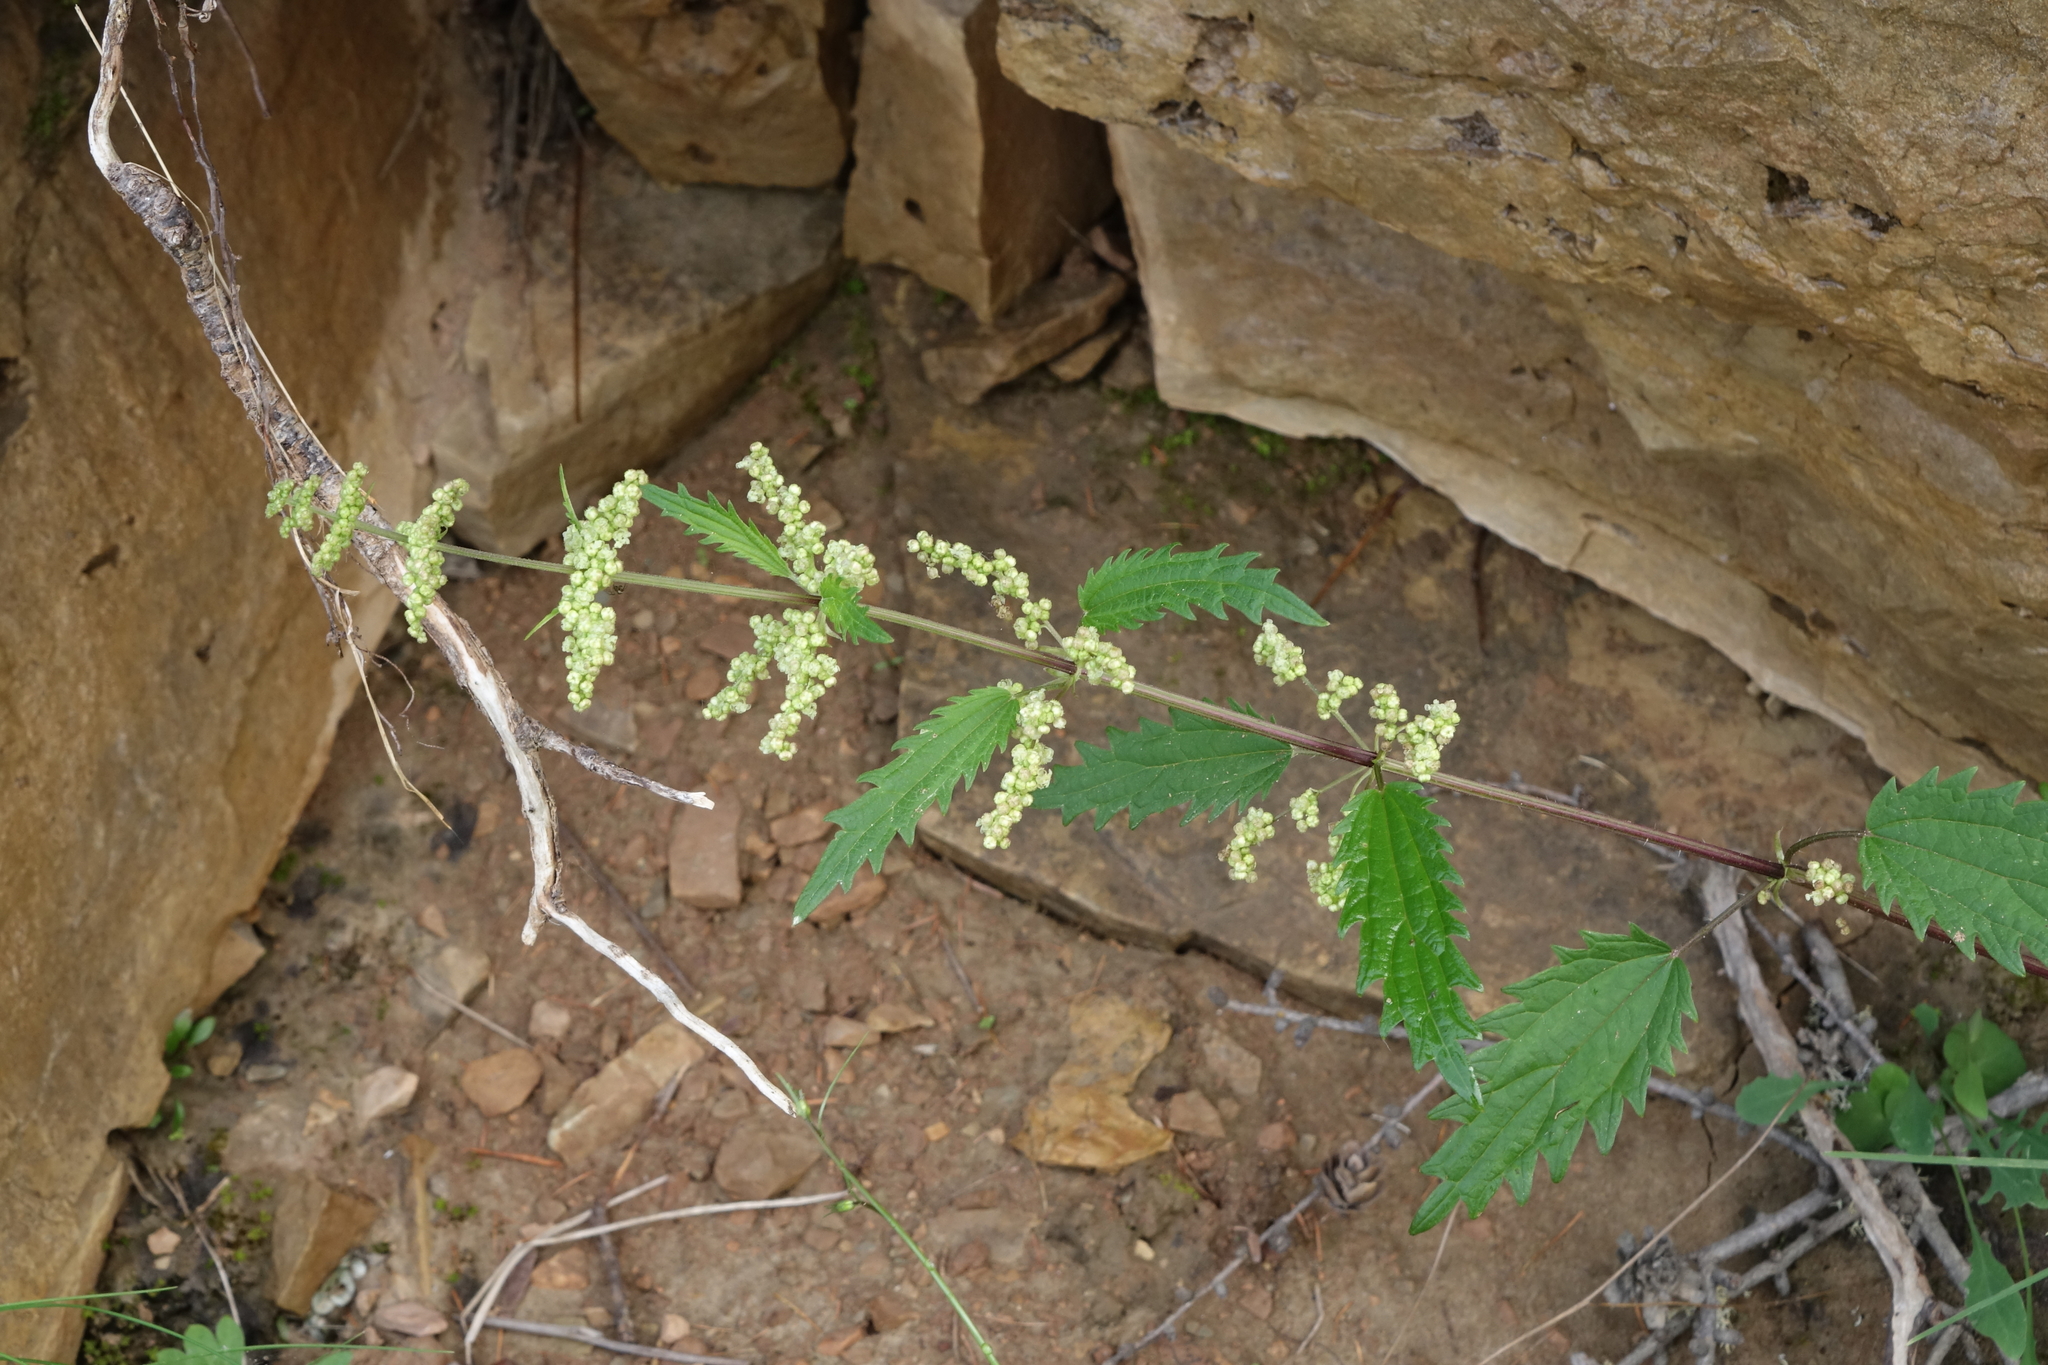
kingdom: Plantae
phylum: Tracheophyta
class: Magnoliopsida
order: Rosales
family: Urticaceae
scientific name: Urticaceae
